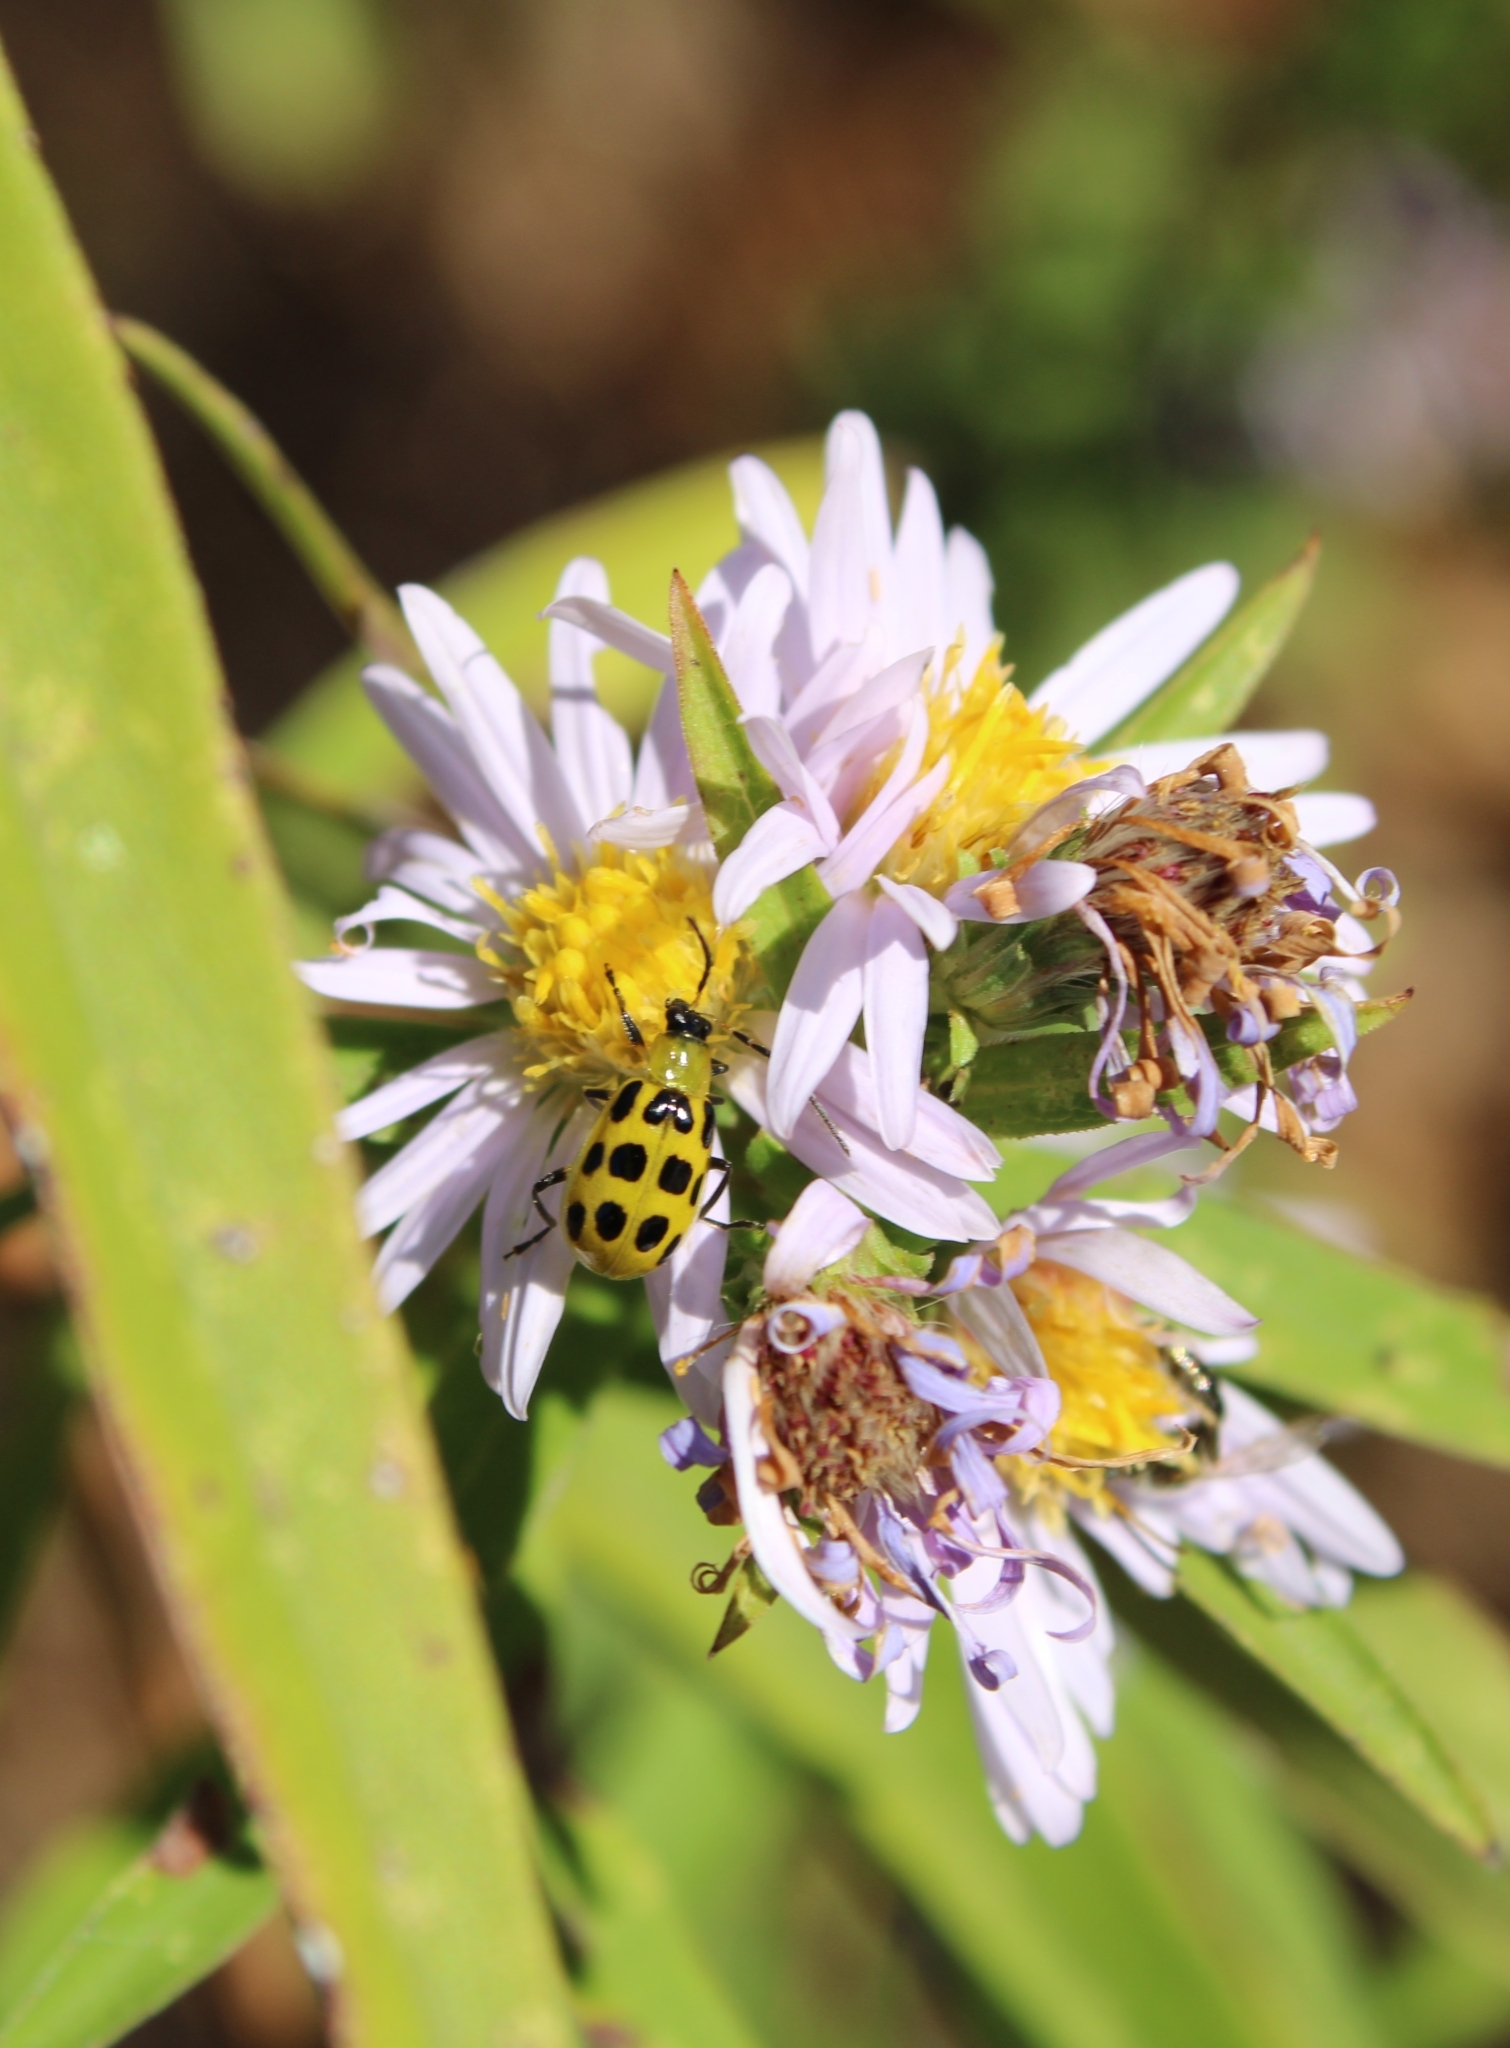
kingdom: Animalia
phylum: Arthropoda
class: Insecta
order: Coleoptera
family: Chrysomelidae
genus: Diabrotica
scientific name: Diabrotica undecimpunctata
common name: Spotted cucumber beetle
